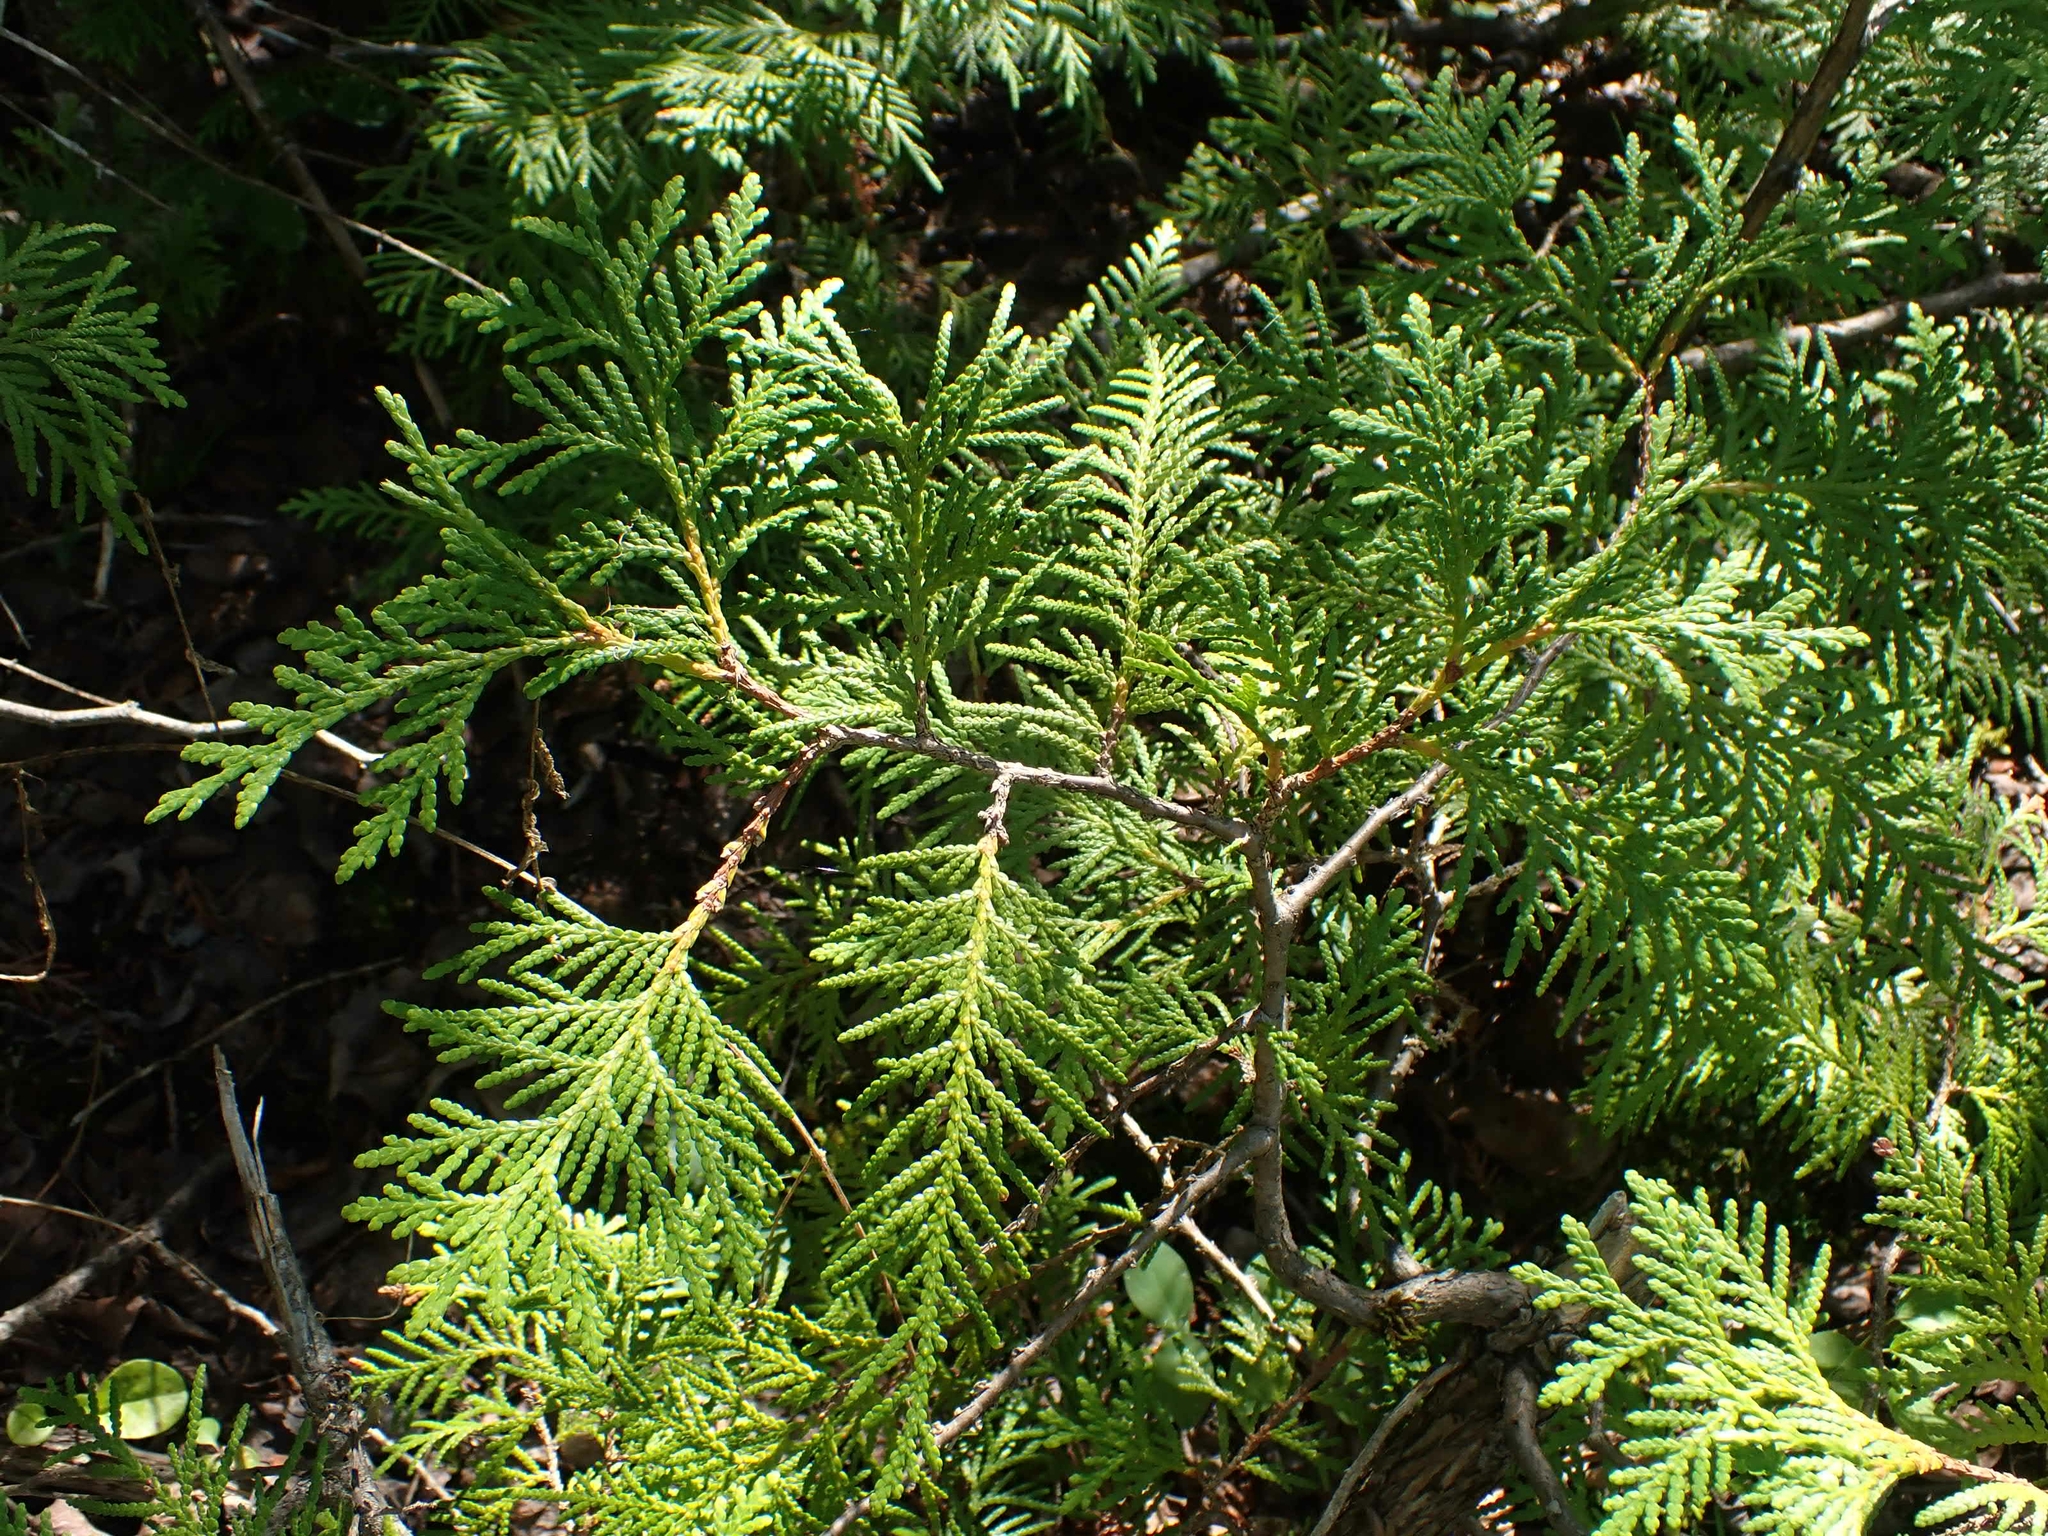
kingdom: Plantae
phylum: Tracheophyta
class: Pinopsida
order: Pinales
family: Cupressaceae
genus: Thuja
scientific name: Thuja occidentalis
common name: Northern white-cedar
